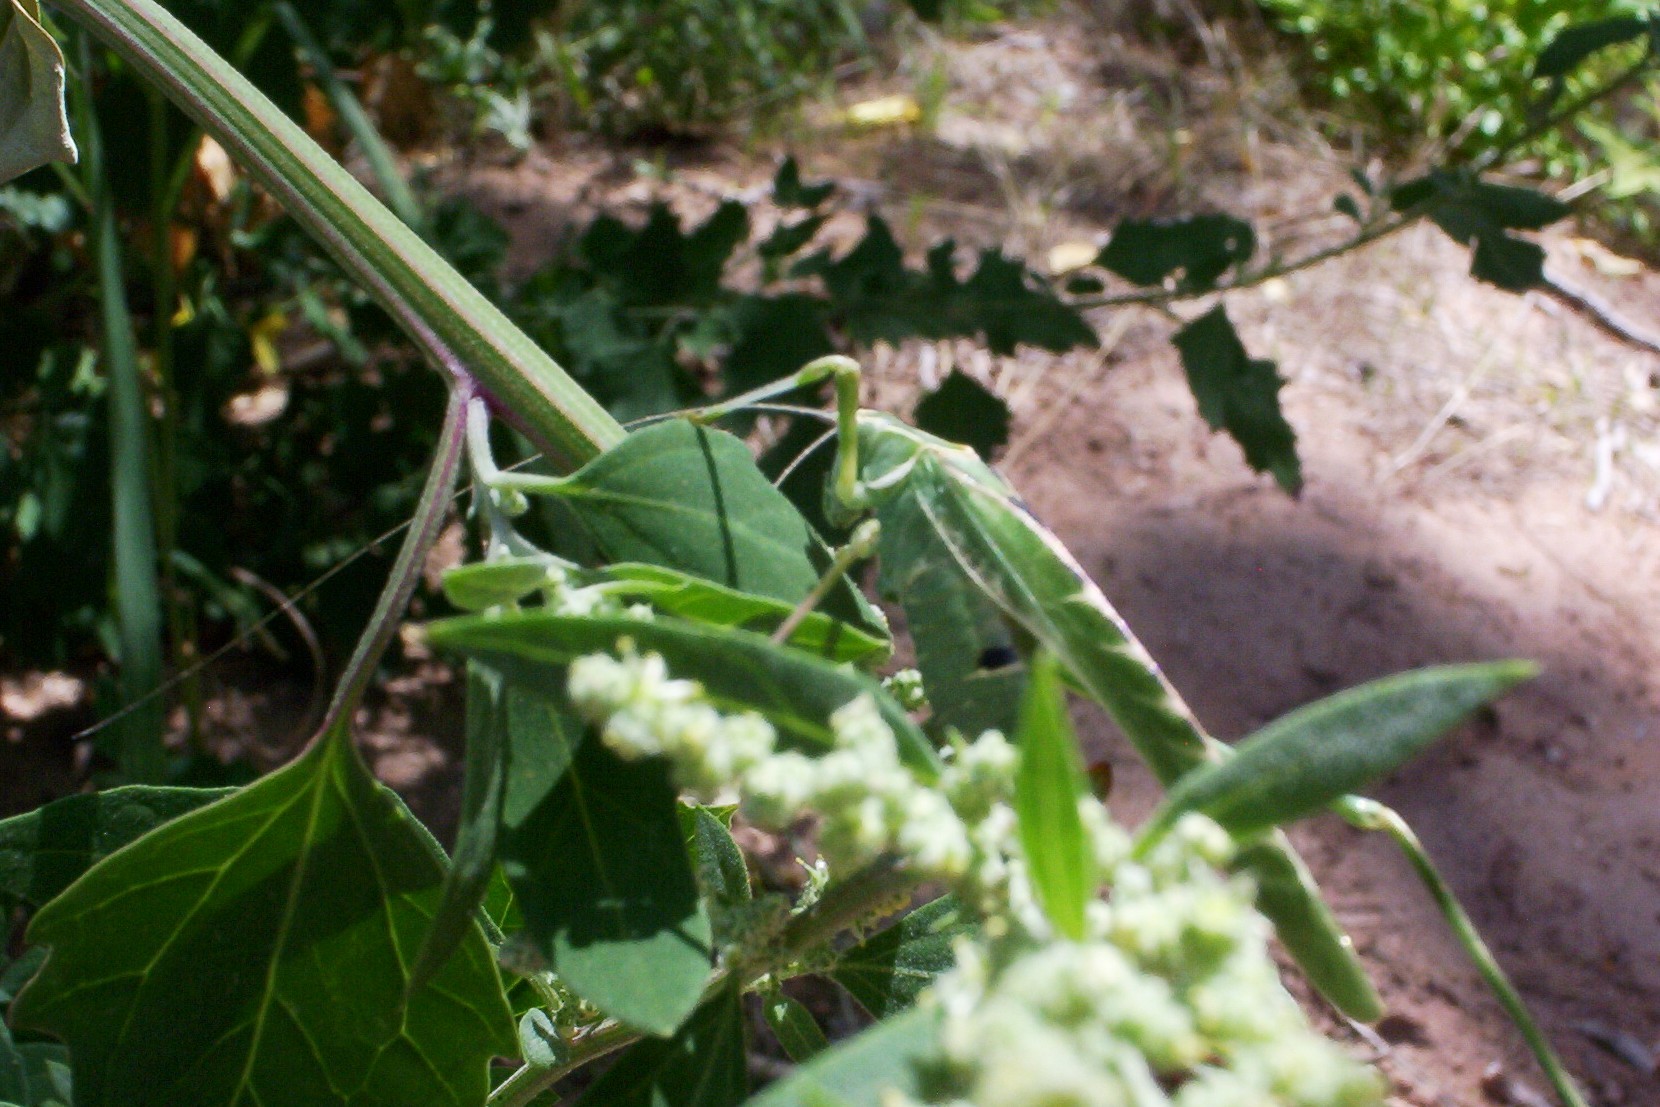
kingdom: Animalia
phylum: Arthropoda
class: Insecta
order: Orthoptera
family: Tettigoniidae
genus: Insara
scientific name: Insara elegans
